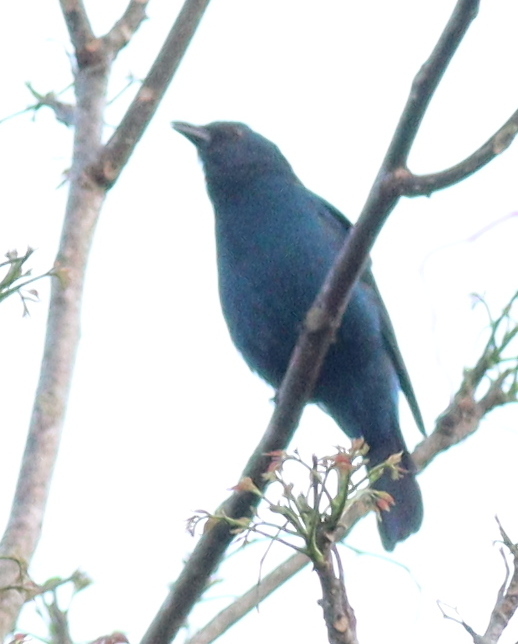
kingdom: Animalia
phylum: Chordata
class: Aves
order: Passeriformes
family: Irenidae
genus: Irena
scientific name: Irena puella
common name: Asian fairy-bluebird
